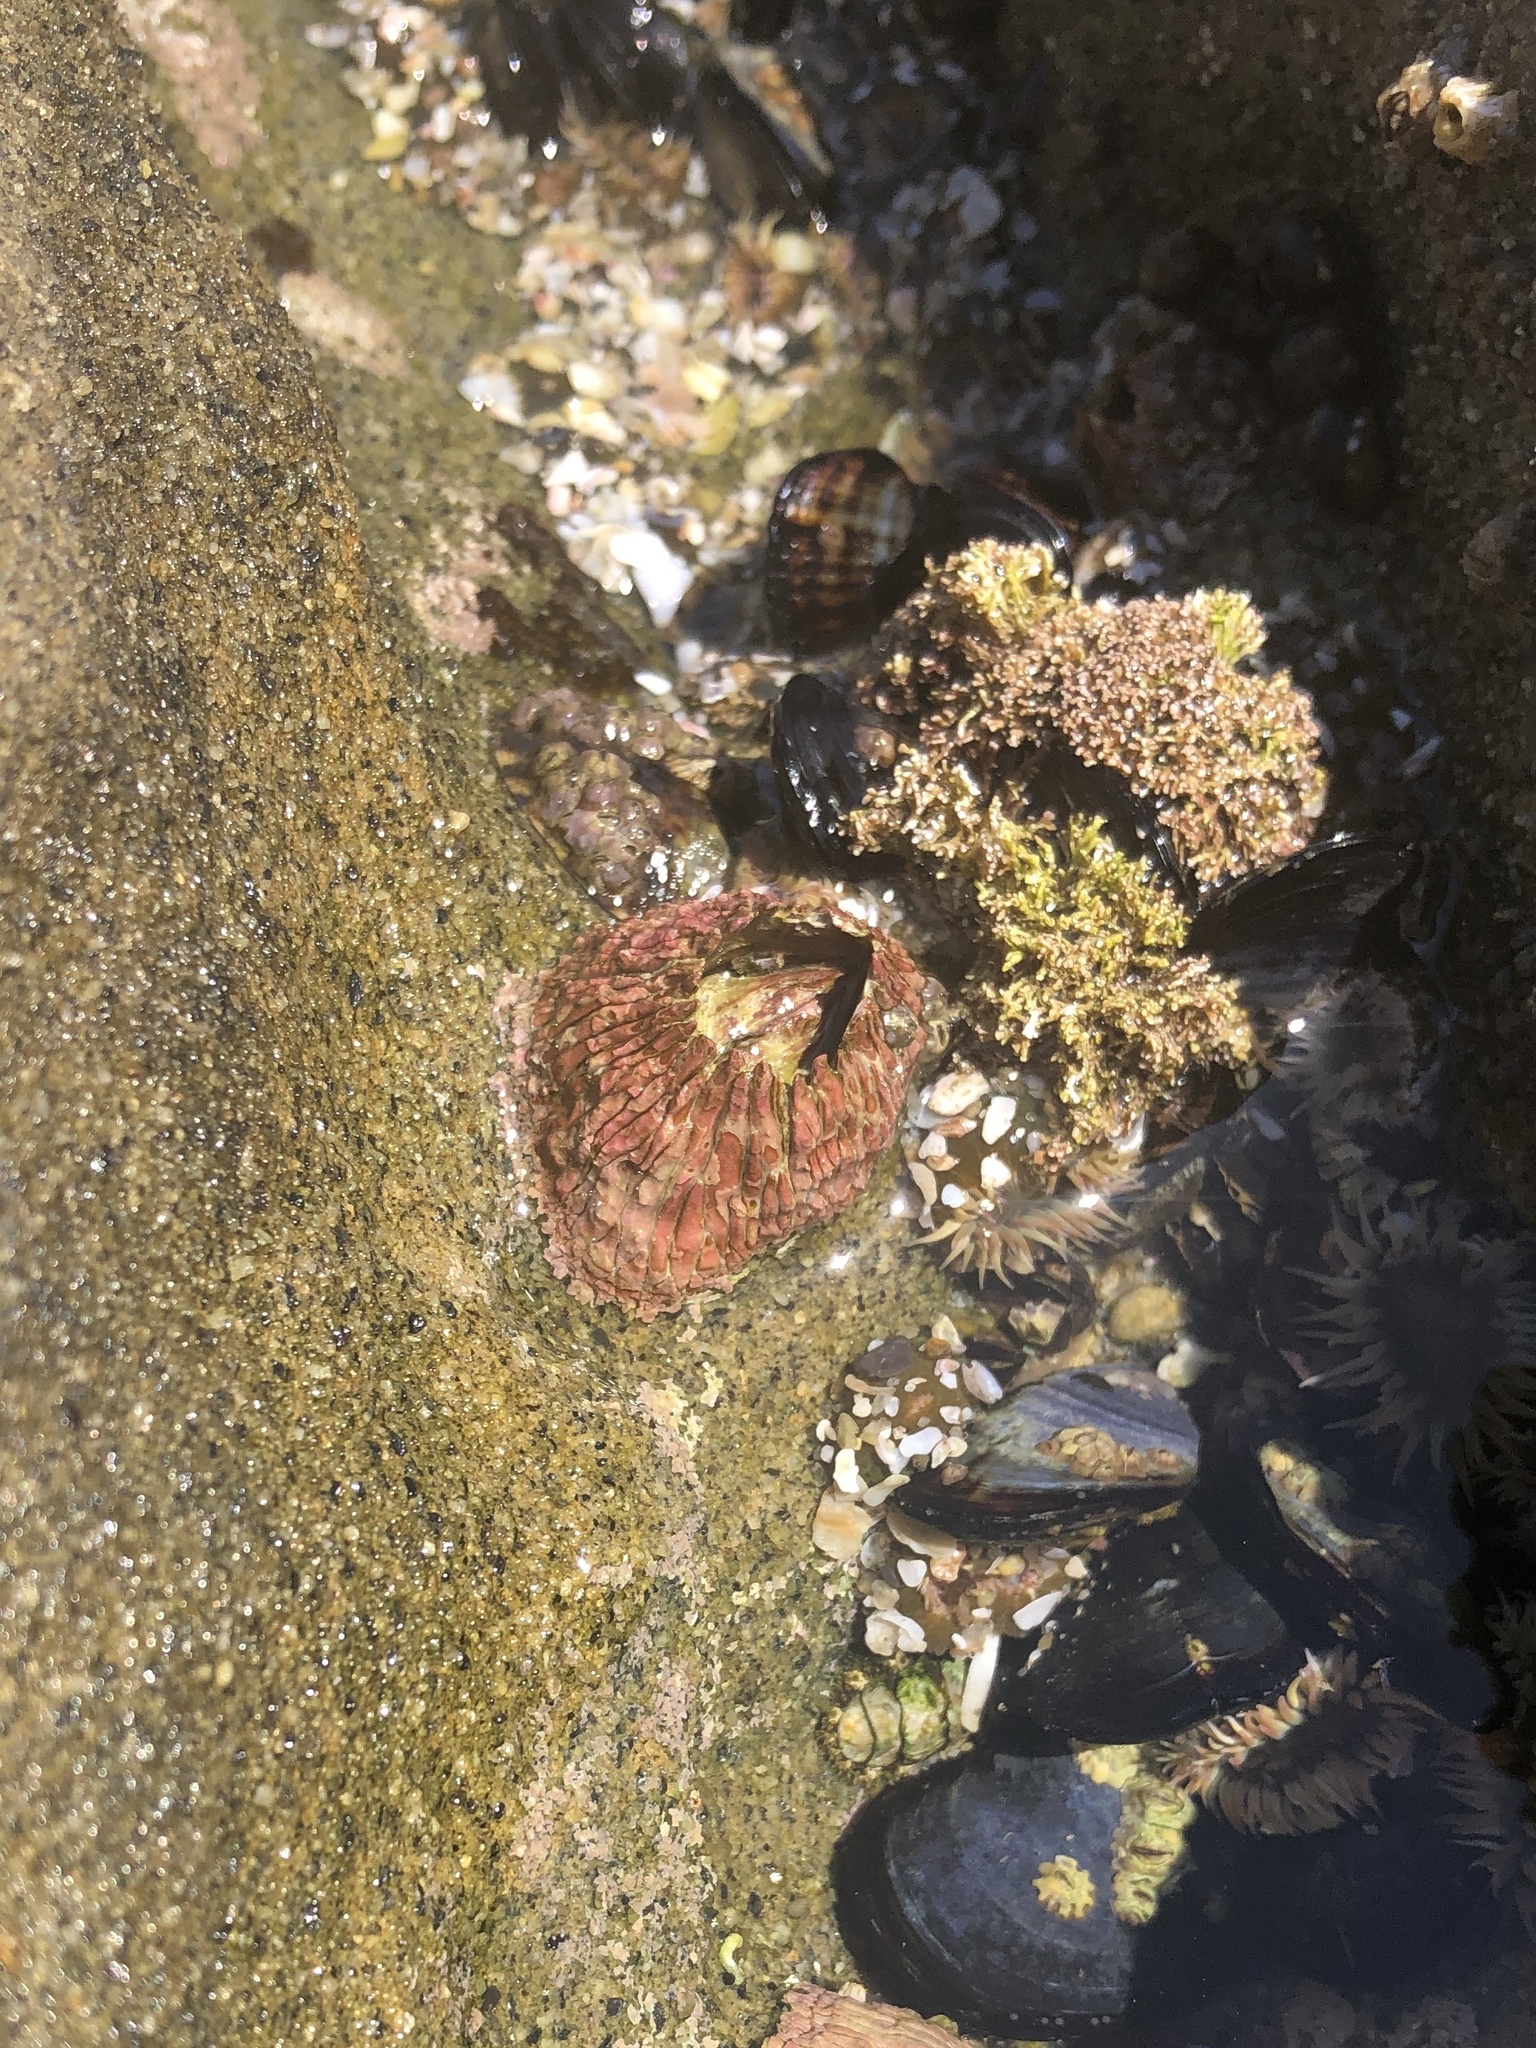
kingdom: Animalia
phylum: Arthropoda
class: Maxillopoda
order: Sessilia
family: Tetraclitidae
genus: Tetraclita
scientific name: Tetraclita rubescens
